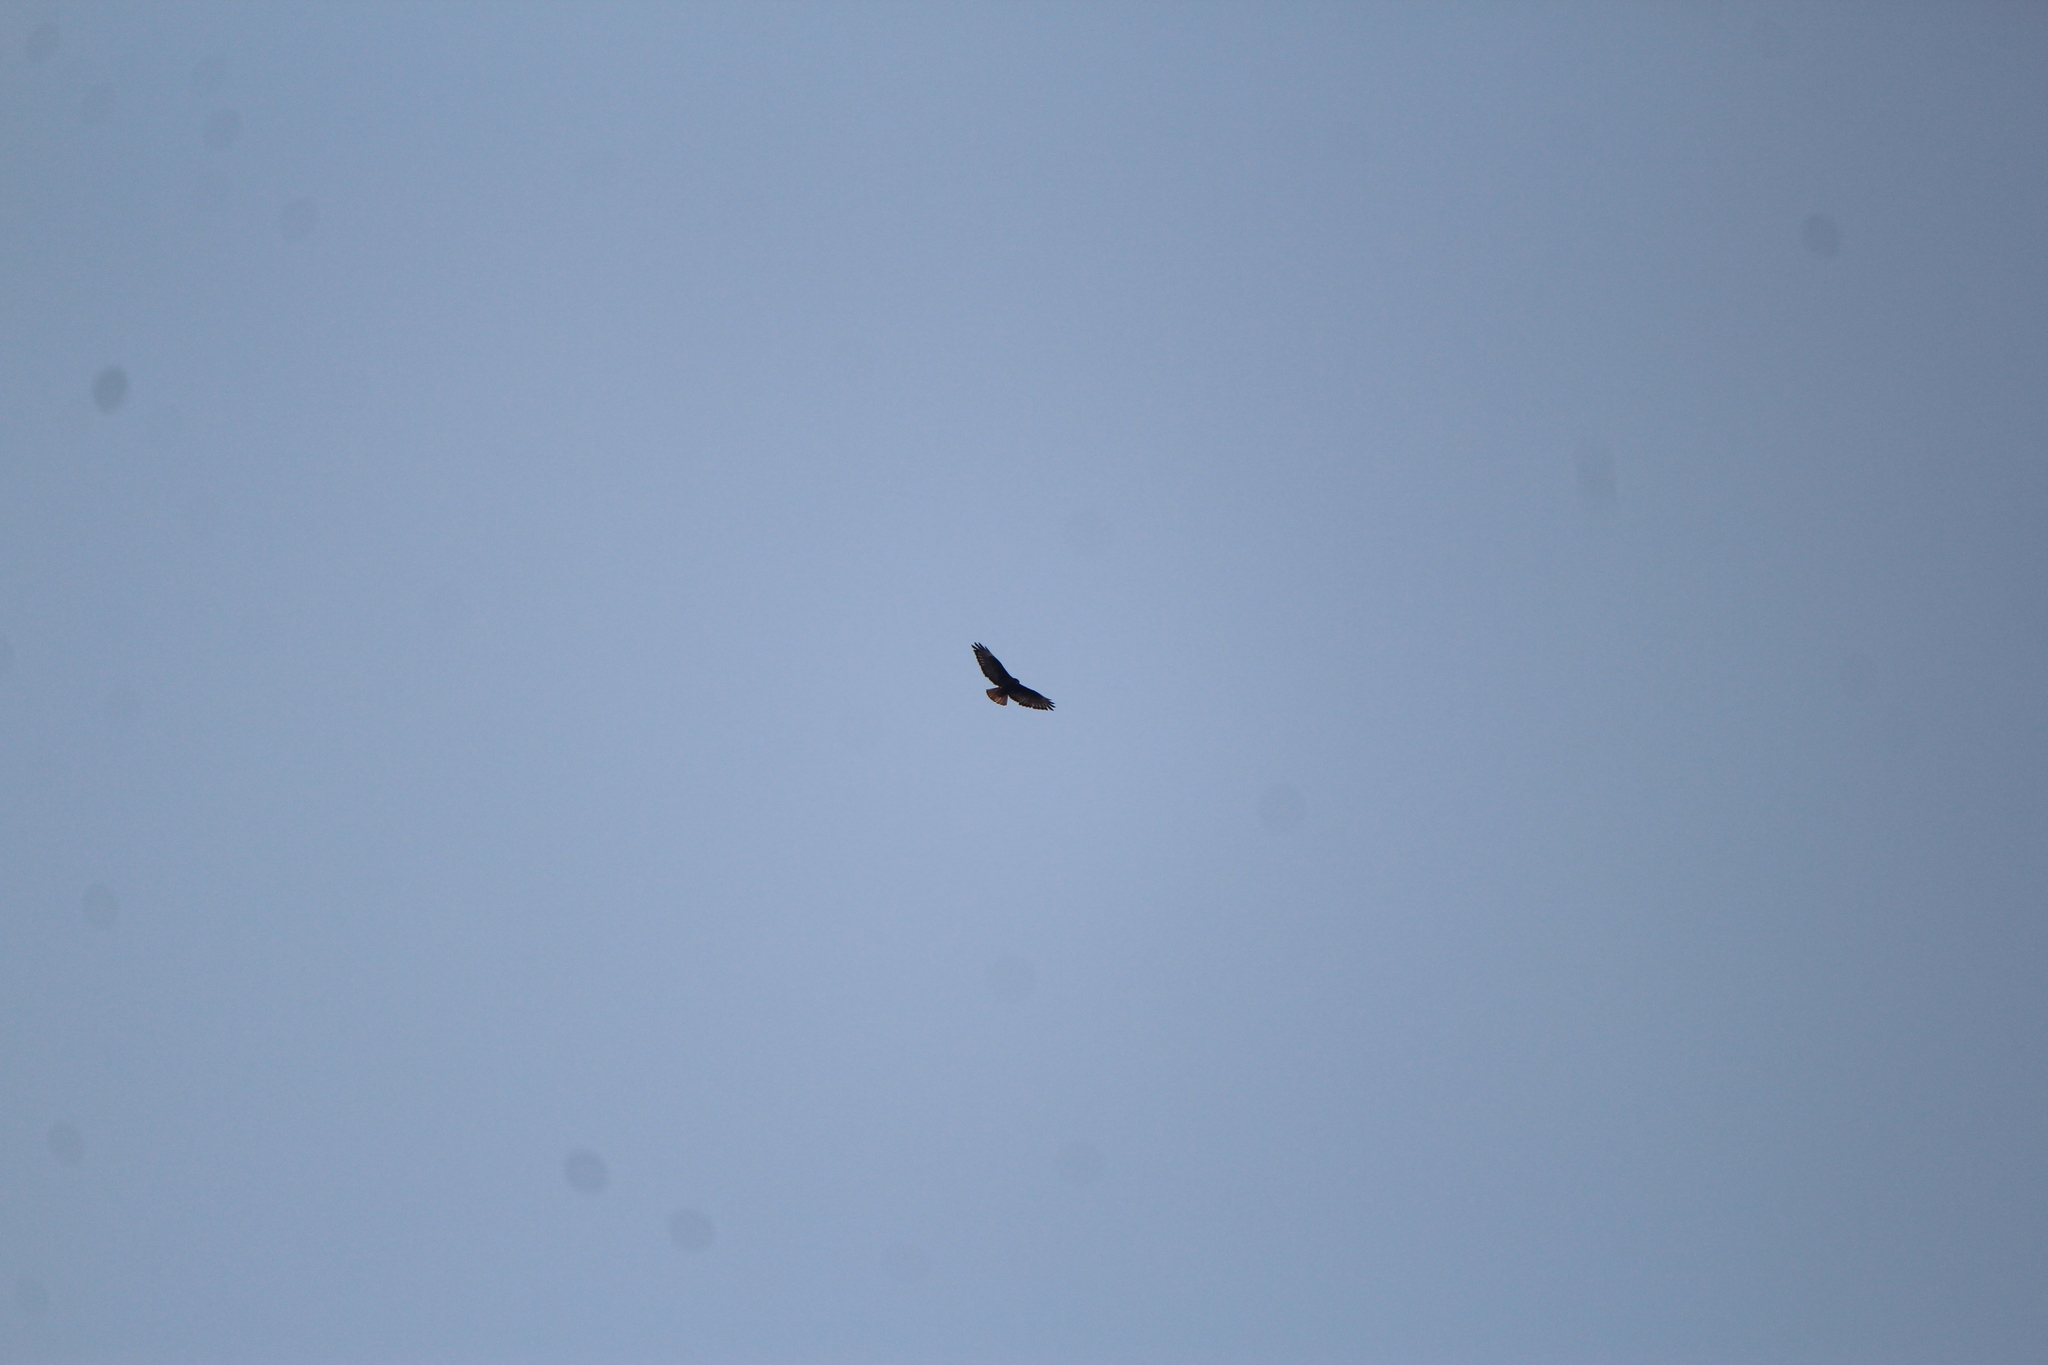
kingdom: Animalia
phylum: Chordata
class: Aves
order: Accipitriformes
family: Accipitridae
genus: Buteo
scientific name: Buteo jamaicensis
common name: Red-tailed hawk
